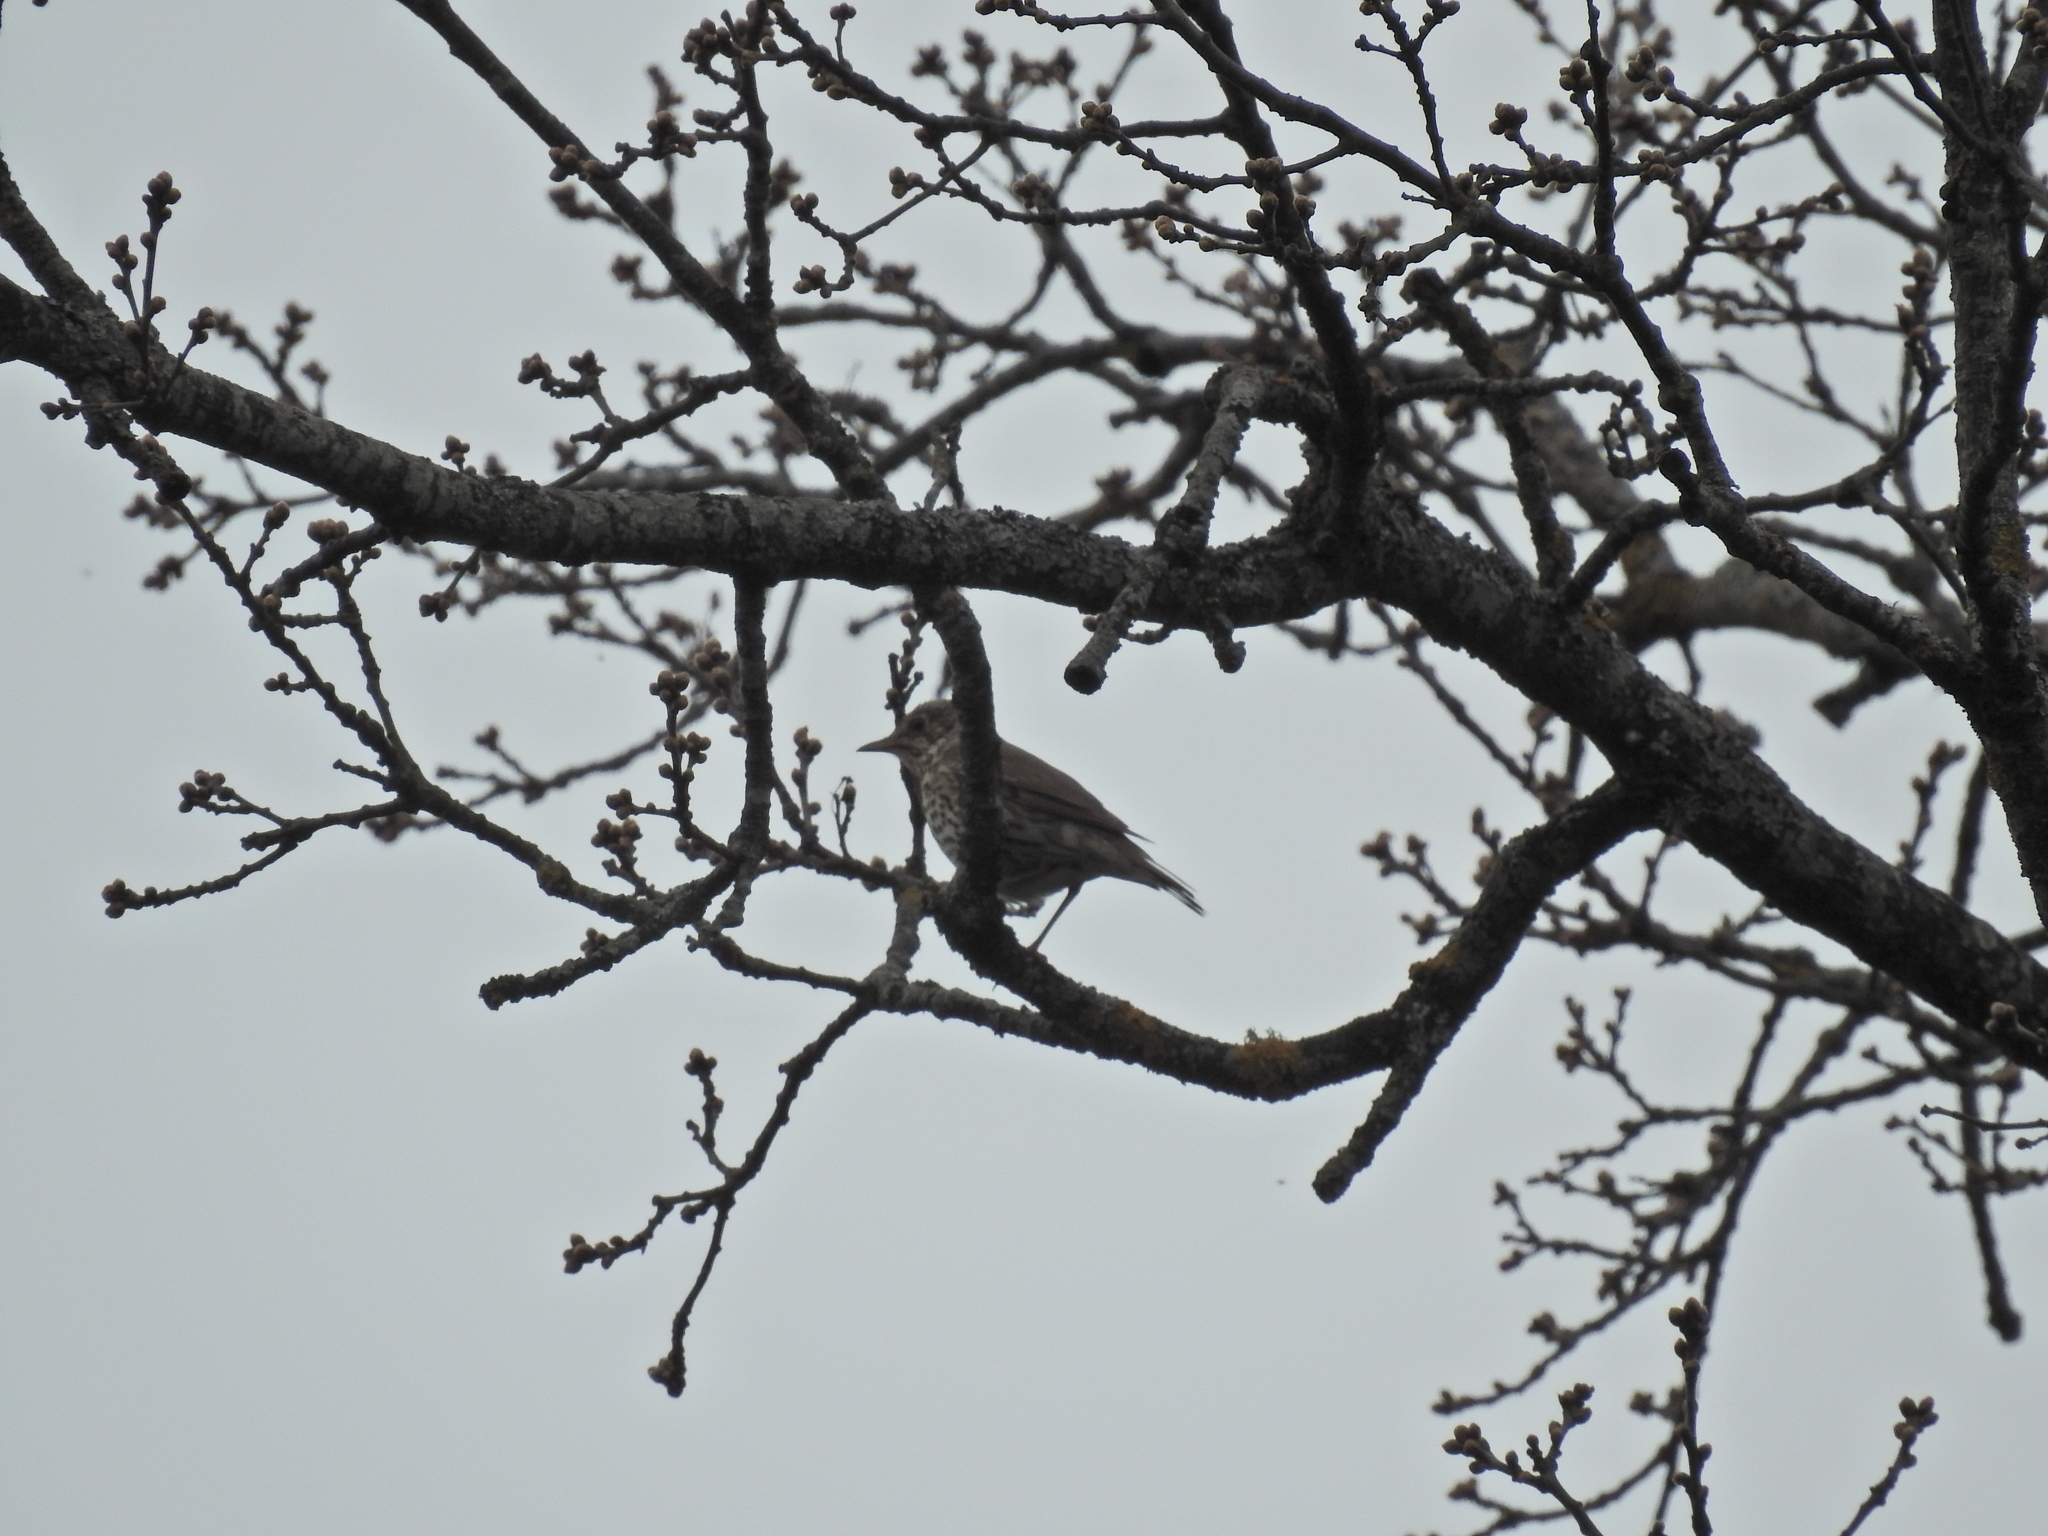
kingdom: Animalia
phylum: Chordata
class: Aves
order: Passeriformes
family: Turdidae
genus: Turdus
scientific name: Turdus philomelos
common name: Song thrush
